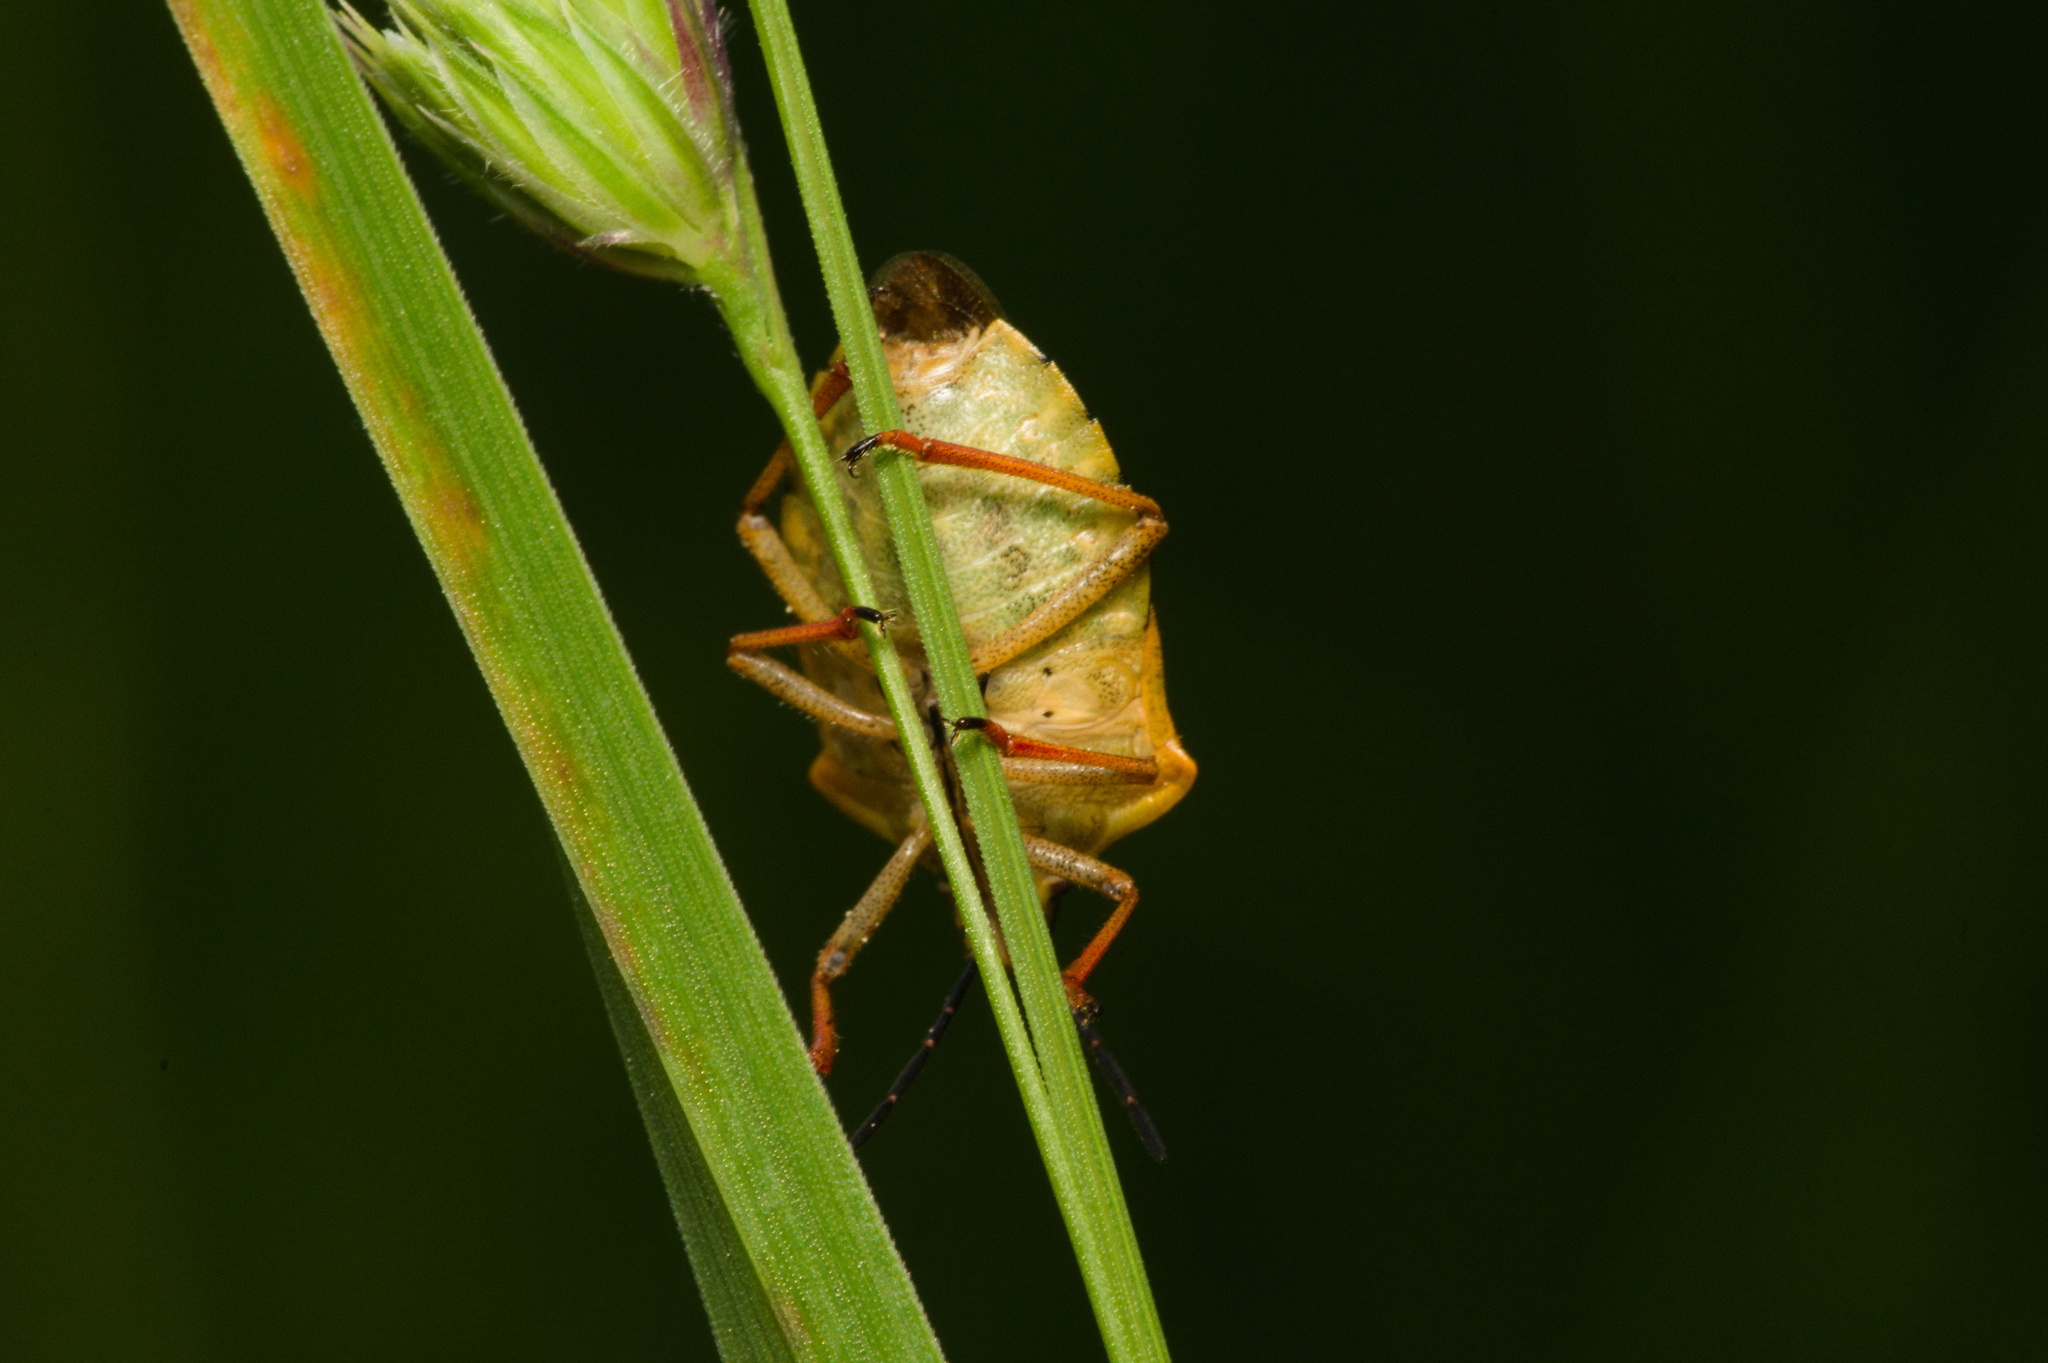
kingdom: Animalia
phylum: Arthropoda
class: Insecta
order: Hemiptera
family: Pentatomidae
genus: Carpocoris
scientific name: Carpocoris purpureipennis
